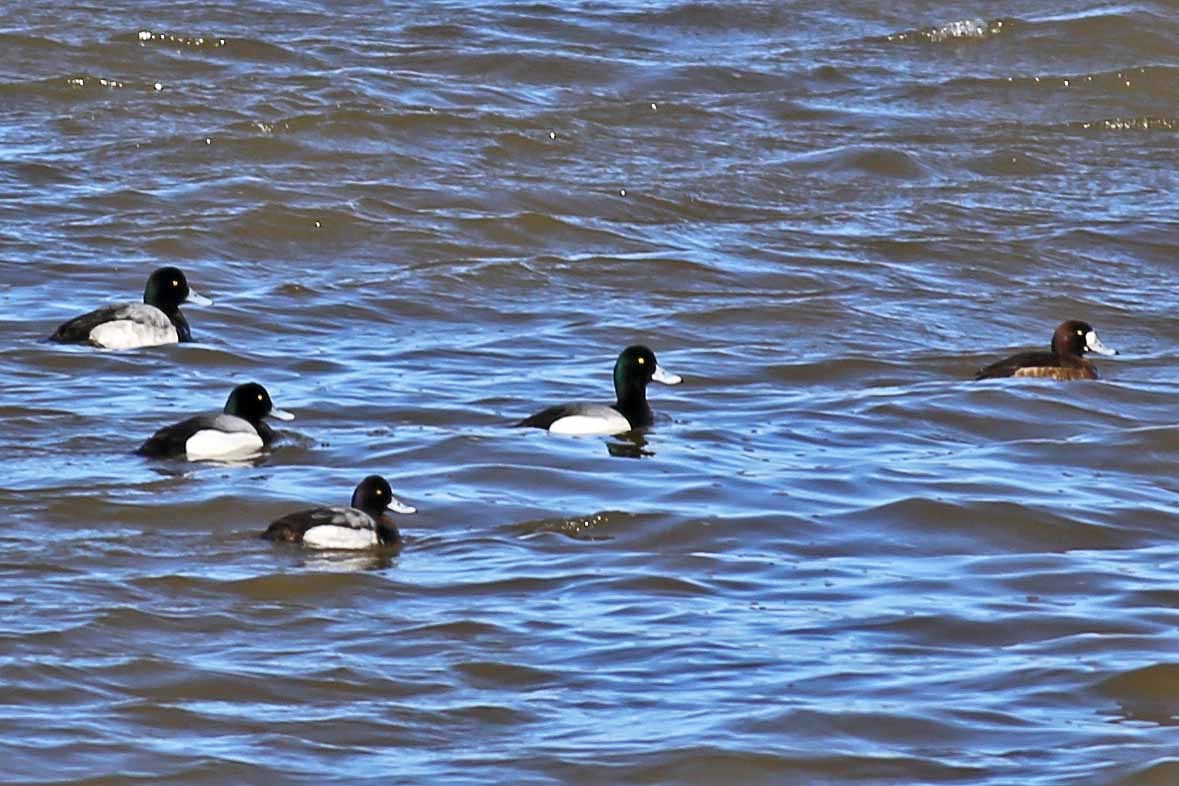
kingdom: Animalia
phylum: Chordata
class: Aves
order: Anseriformes
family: Anatidae
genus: Aythya
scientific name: Aythya marila
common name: Greater scaup
